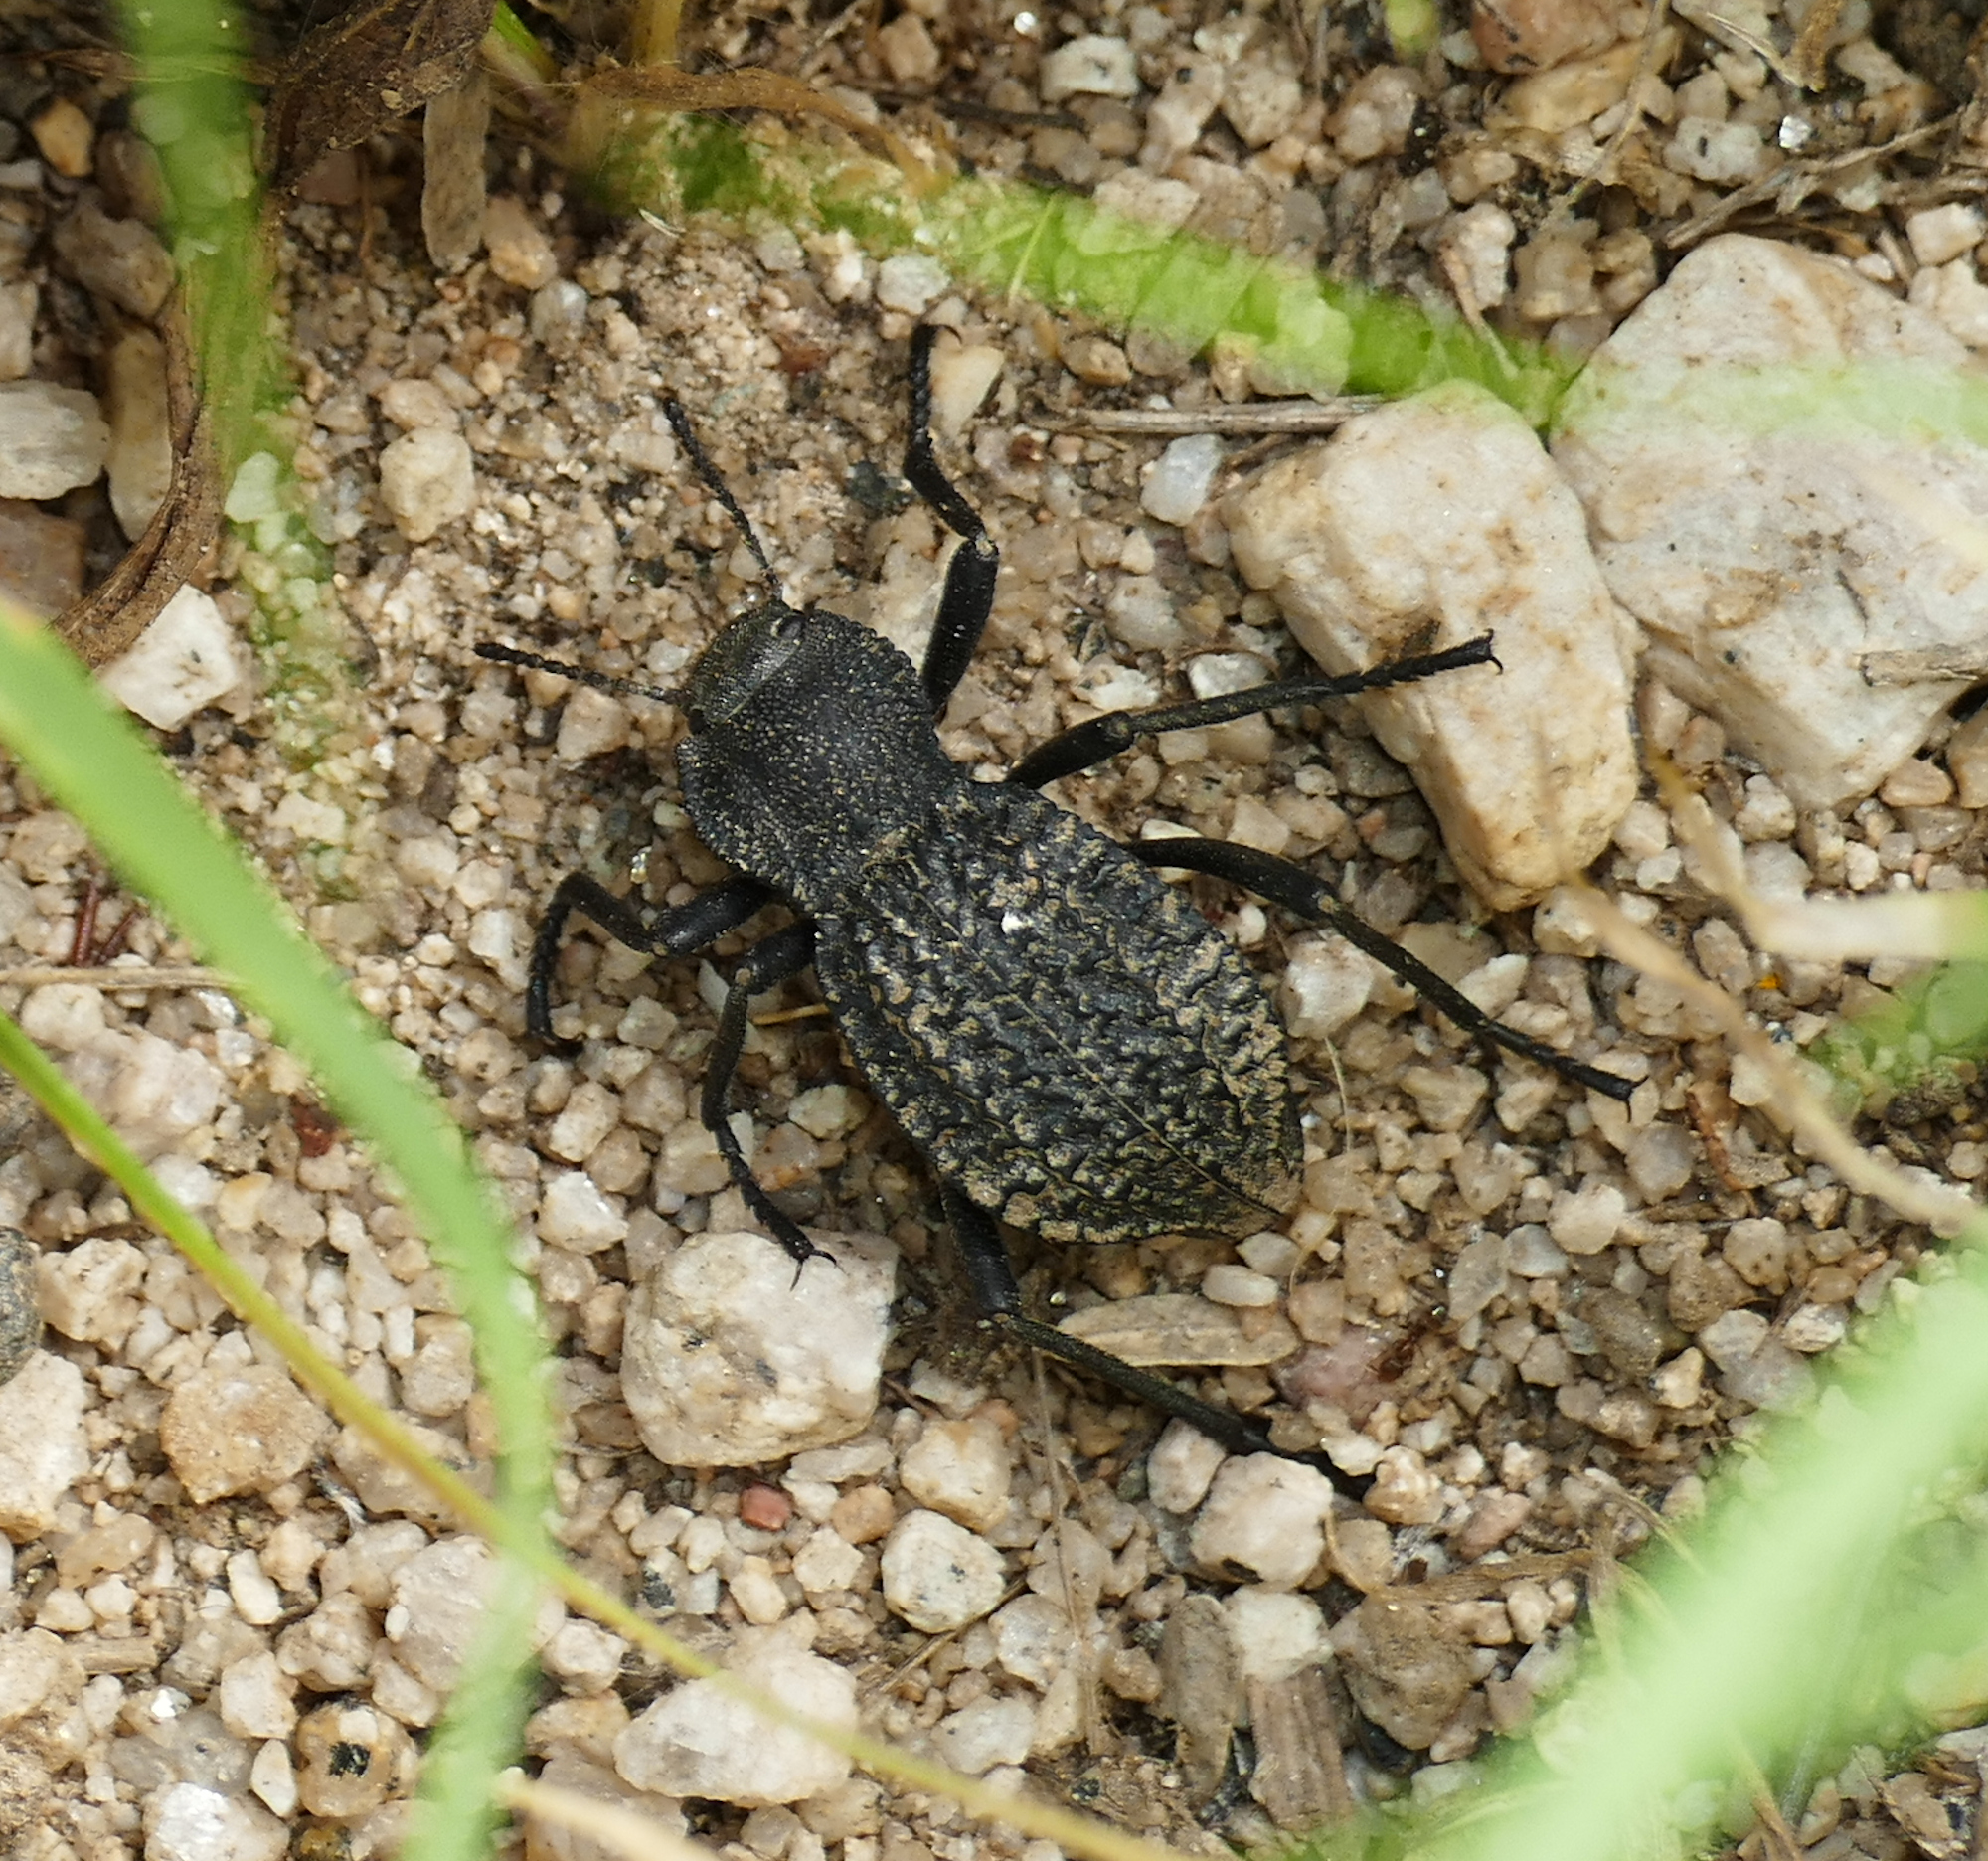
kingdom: Animalia
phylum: Arthropoda
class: Insecta
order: Coleoptera
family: Tenebrionidae
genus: Philolithus
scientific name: Philolithus morbillosus
